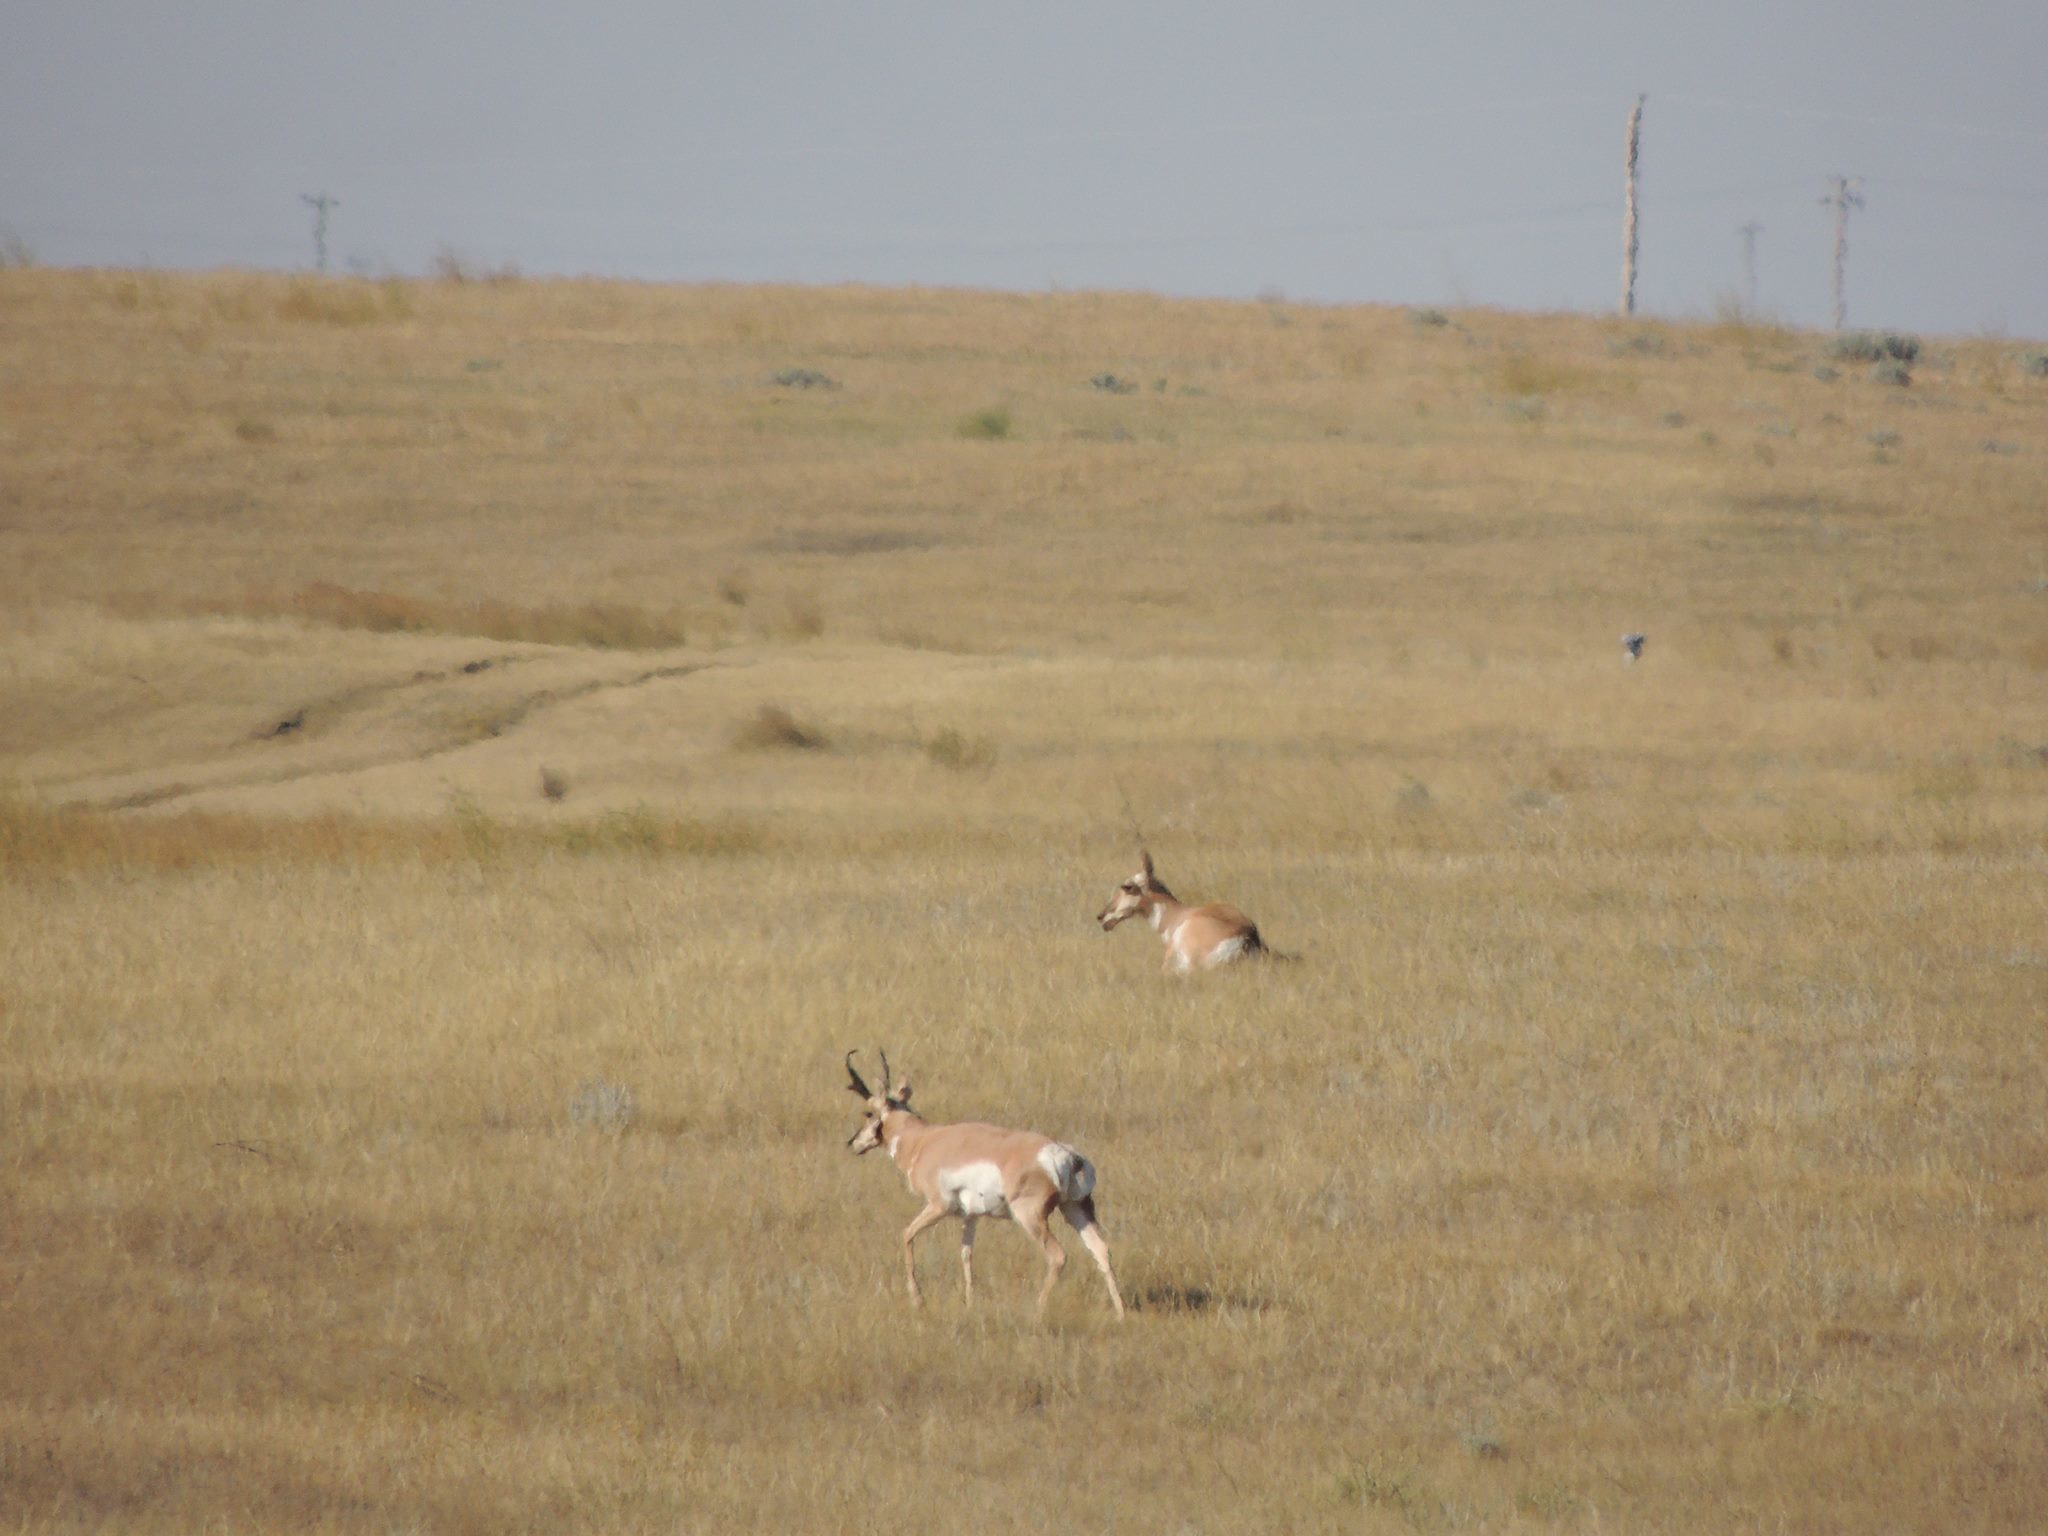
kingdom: Animalia
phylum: Chordata
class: Mammalia
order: Artiodactyla
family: Antilocapridae
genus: Antilocapra
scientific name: Antilocapra americana
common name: Pronghorn
